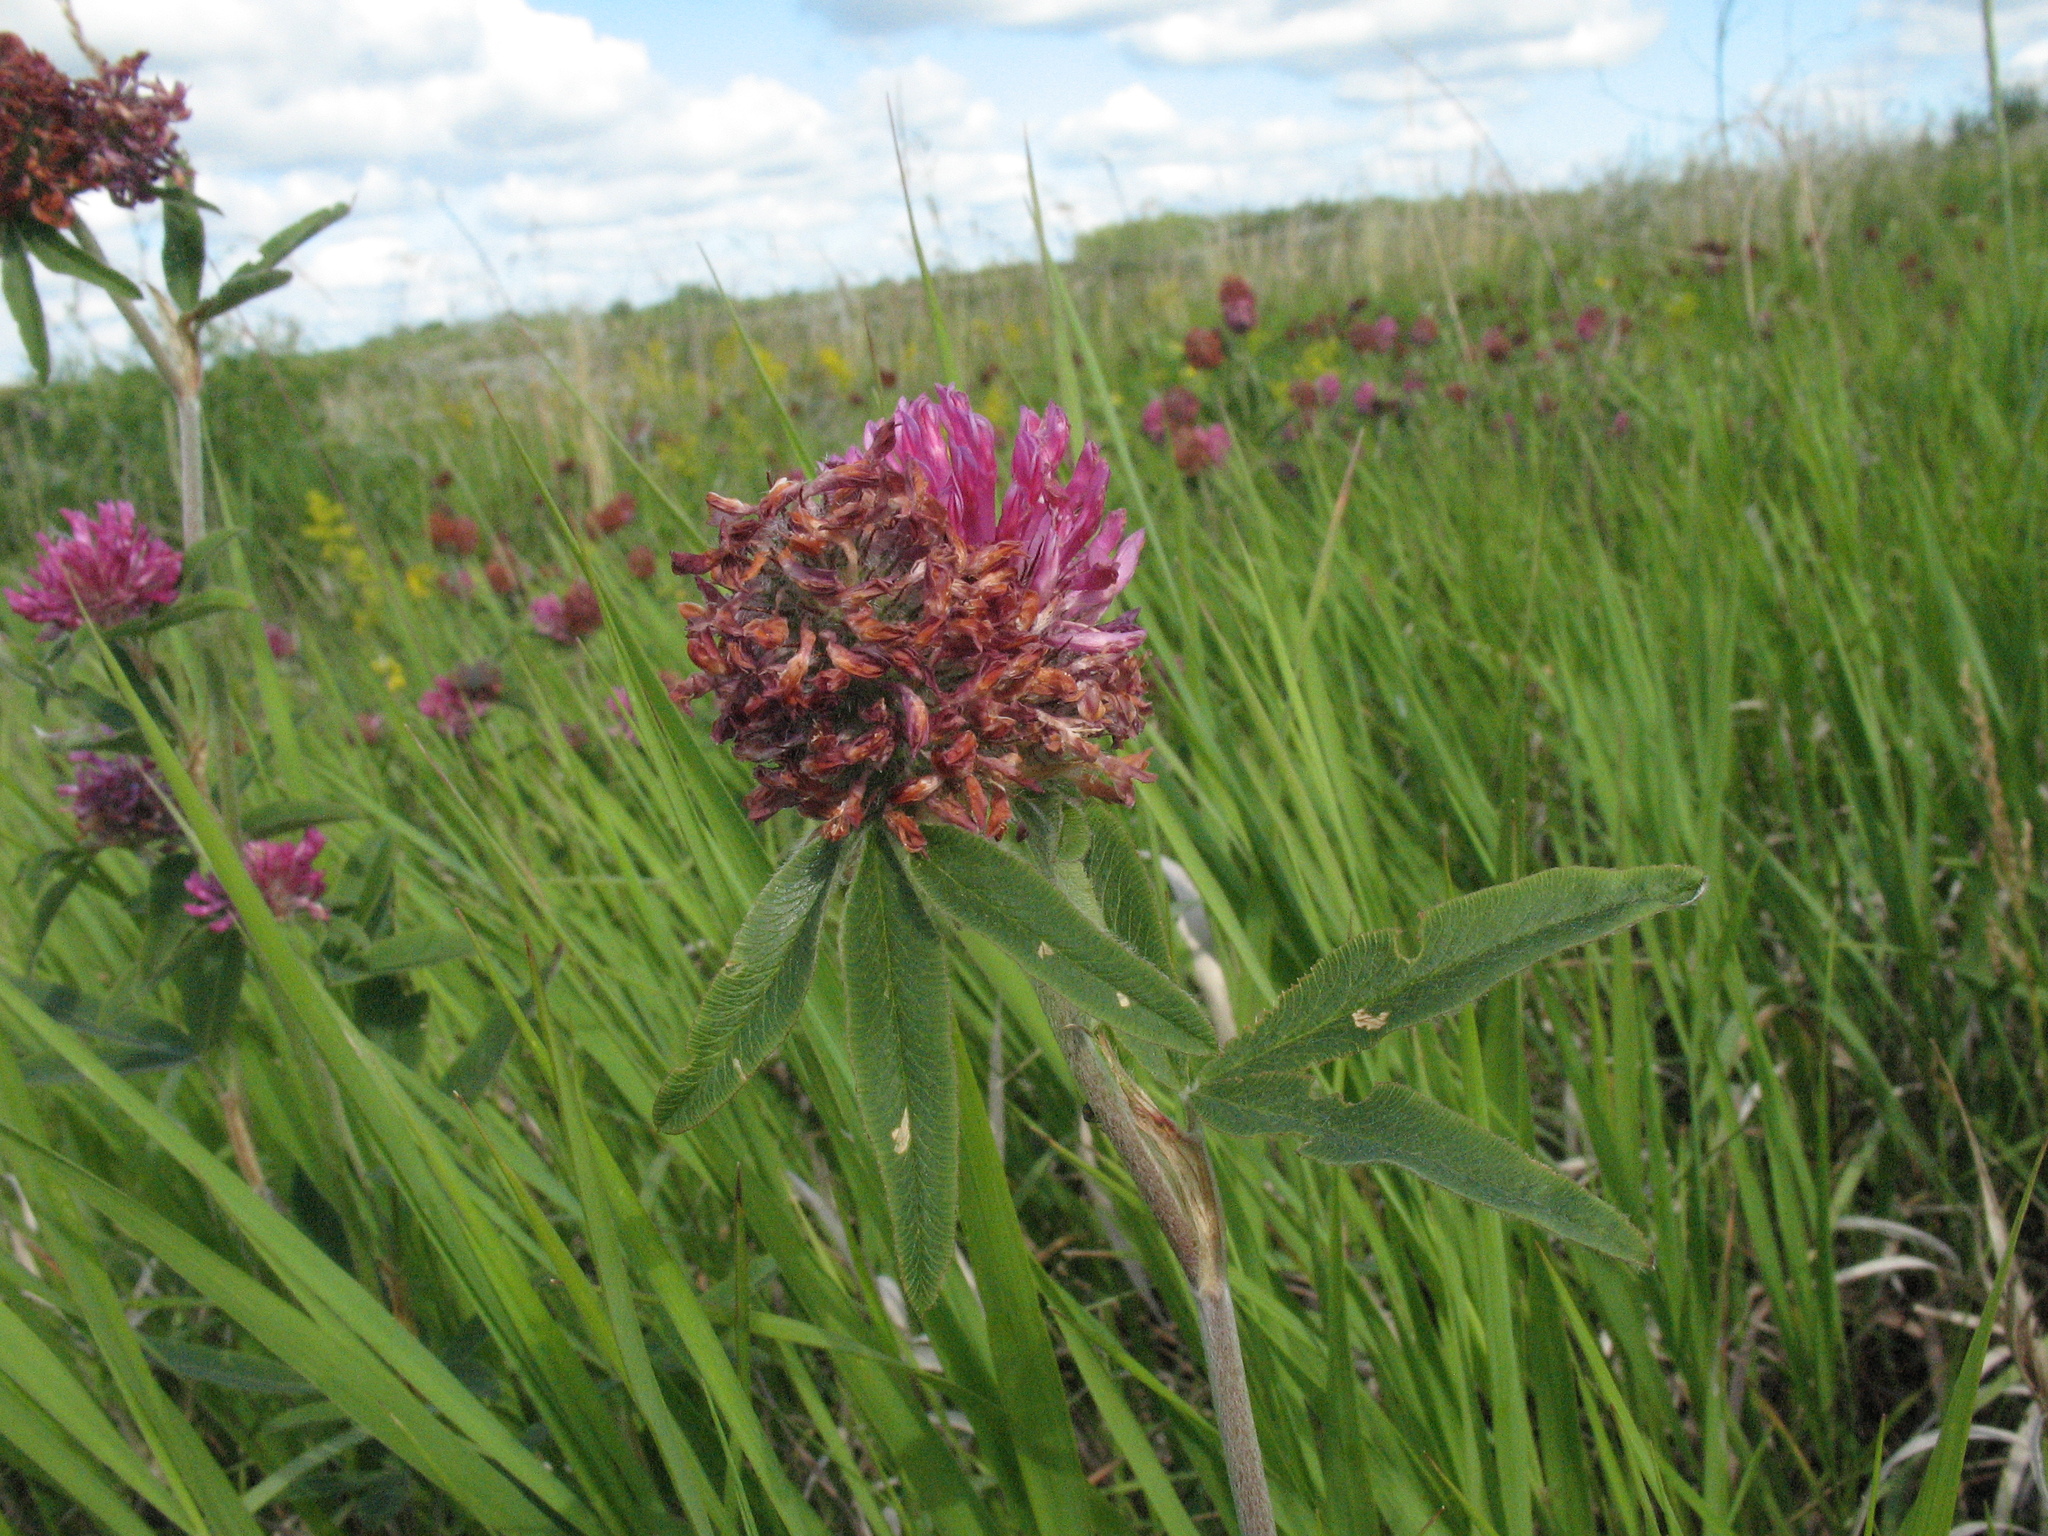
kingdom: Plantae
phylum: Tracheophyta
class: Magnoliopsida
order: Fabales
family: Fabaceae
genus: Trifolium
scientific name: Trifolium alpestre
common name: Owl-head clover
